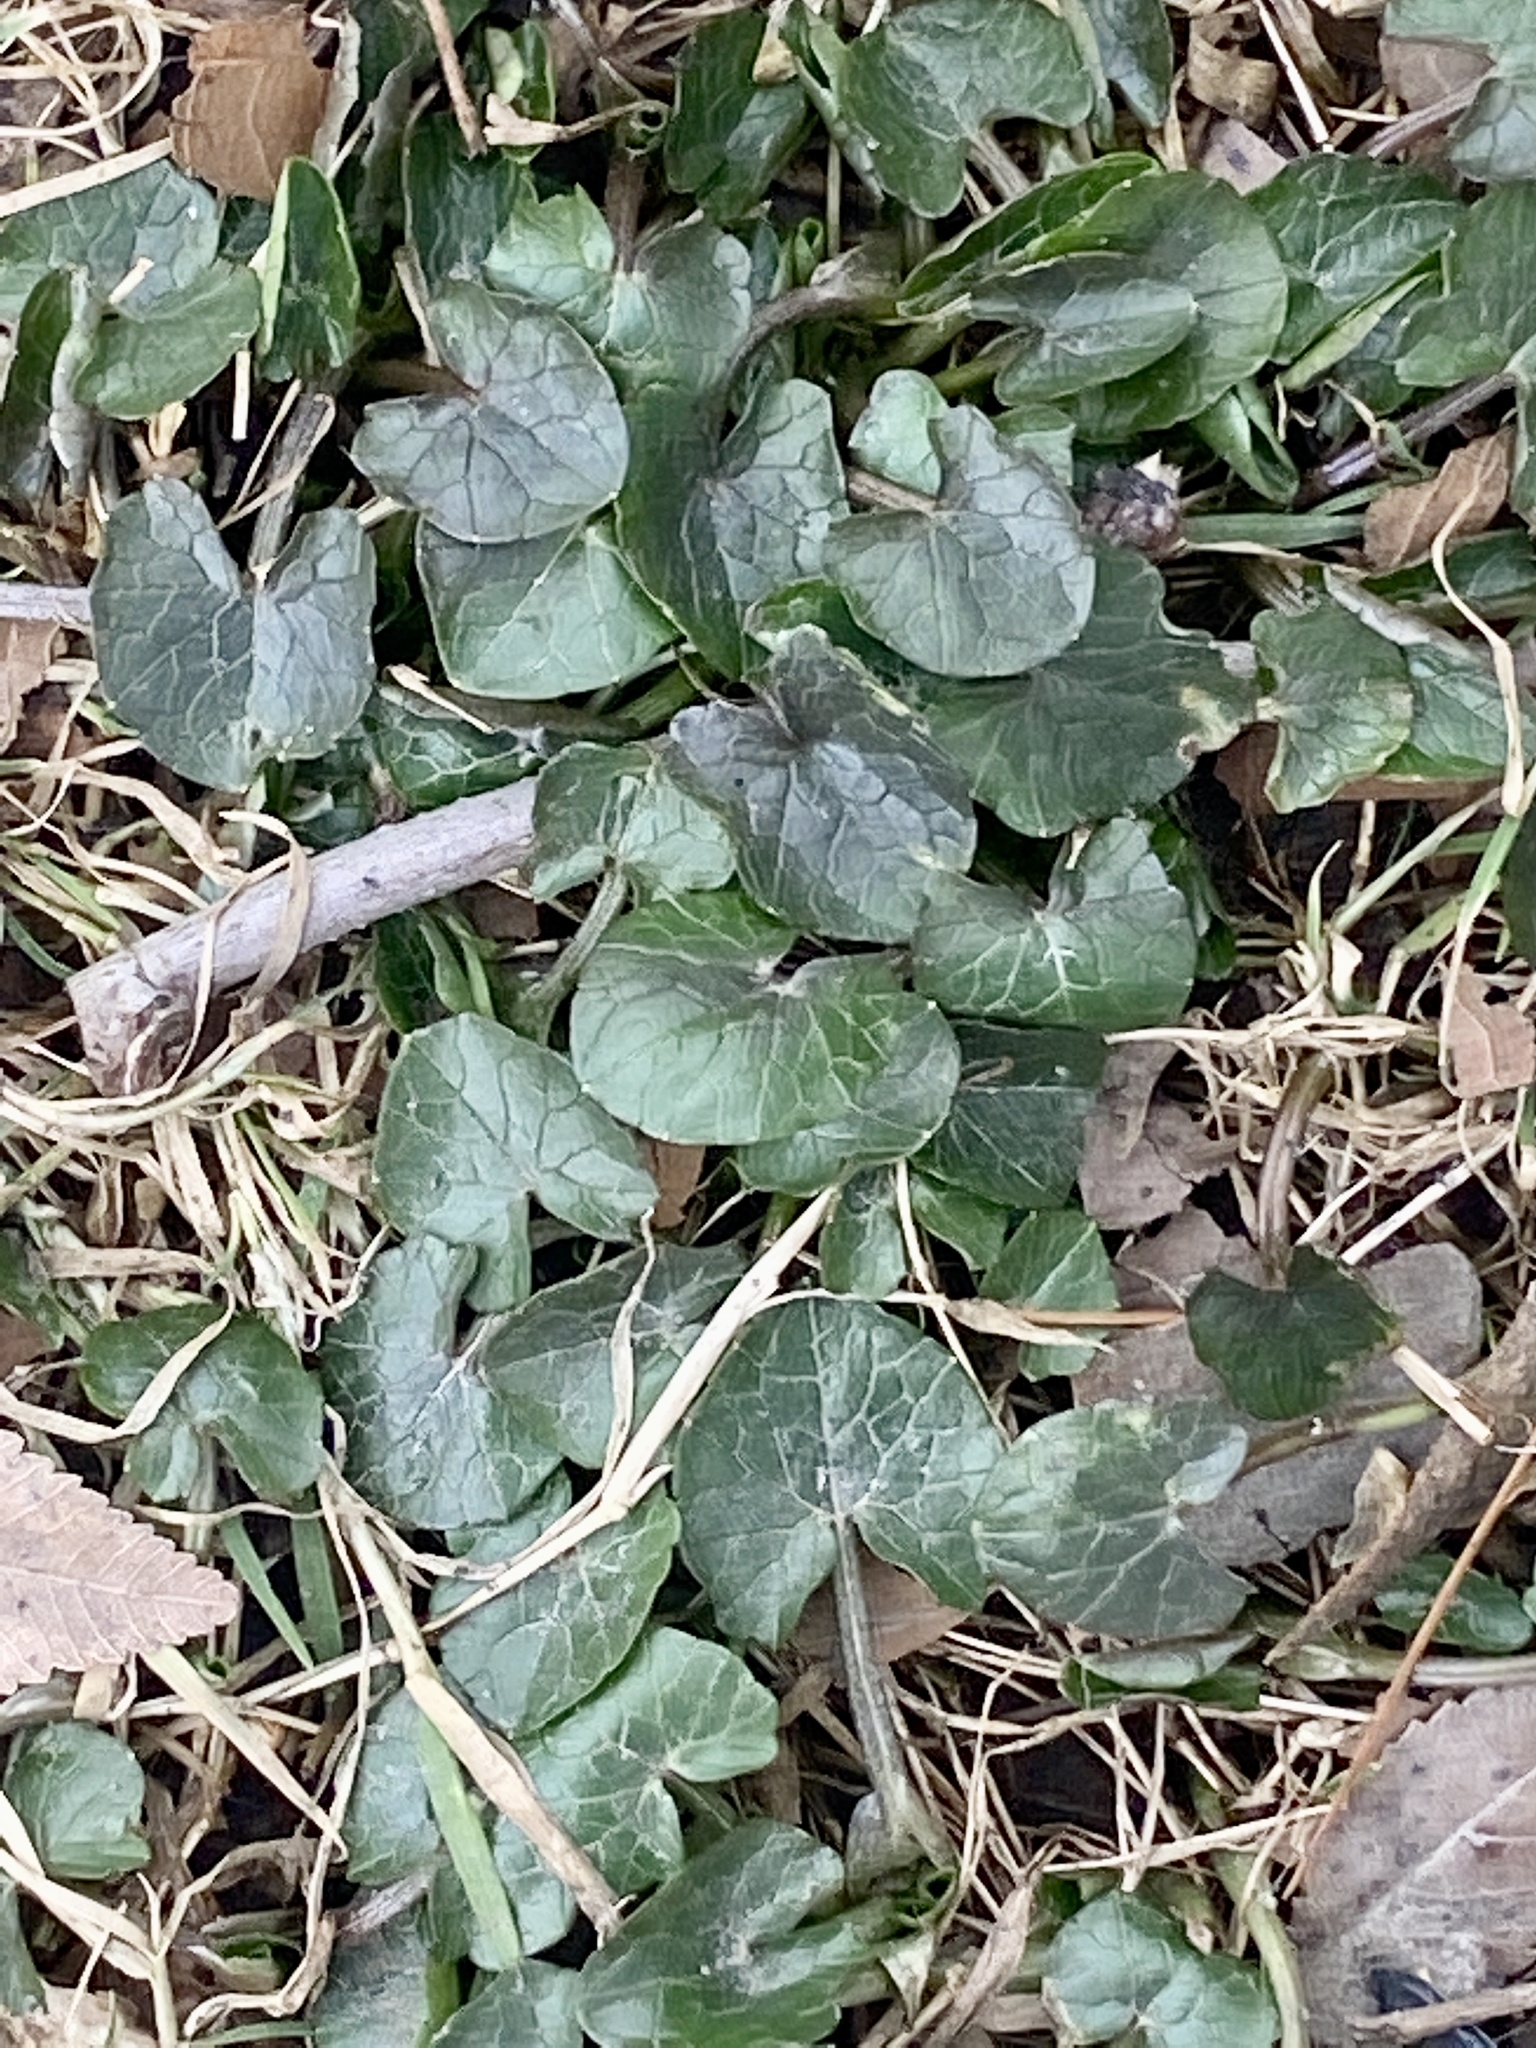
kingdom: Plantae
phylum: Tracheophyta
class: Magnoliopsida
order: Ranunculales
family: Ranunculaceae
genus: Ficaria
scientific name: Ficaria verna
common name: Lesser celandine
